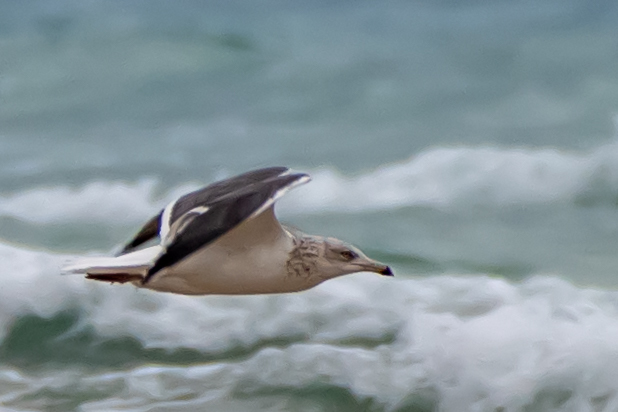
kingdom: Animalia
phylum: Chordata
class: Aves
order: Charadriiformes
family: Laridae
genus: Larus
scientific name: Larus fuscus
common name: Lesser black-backed gull
